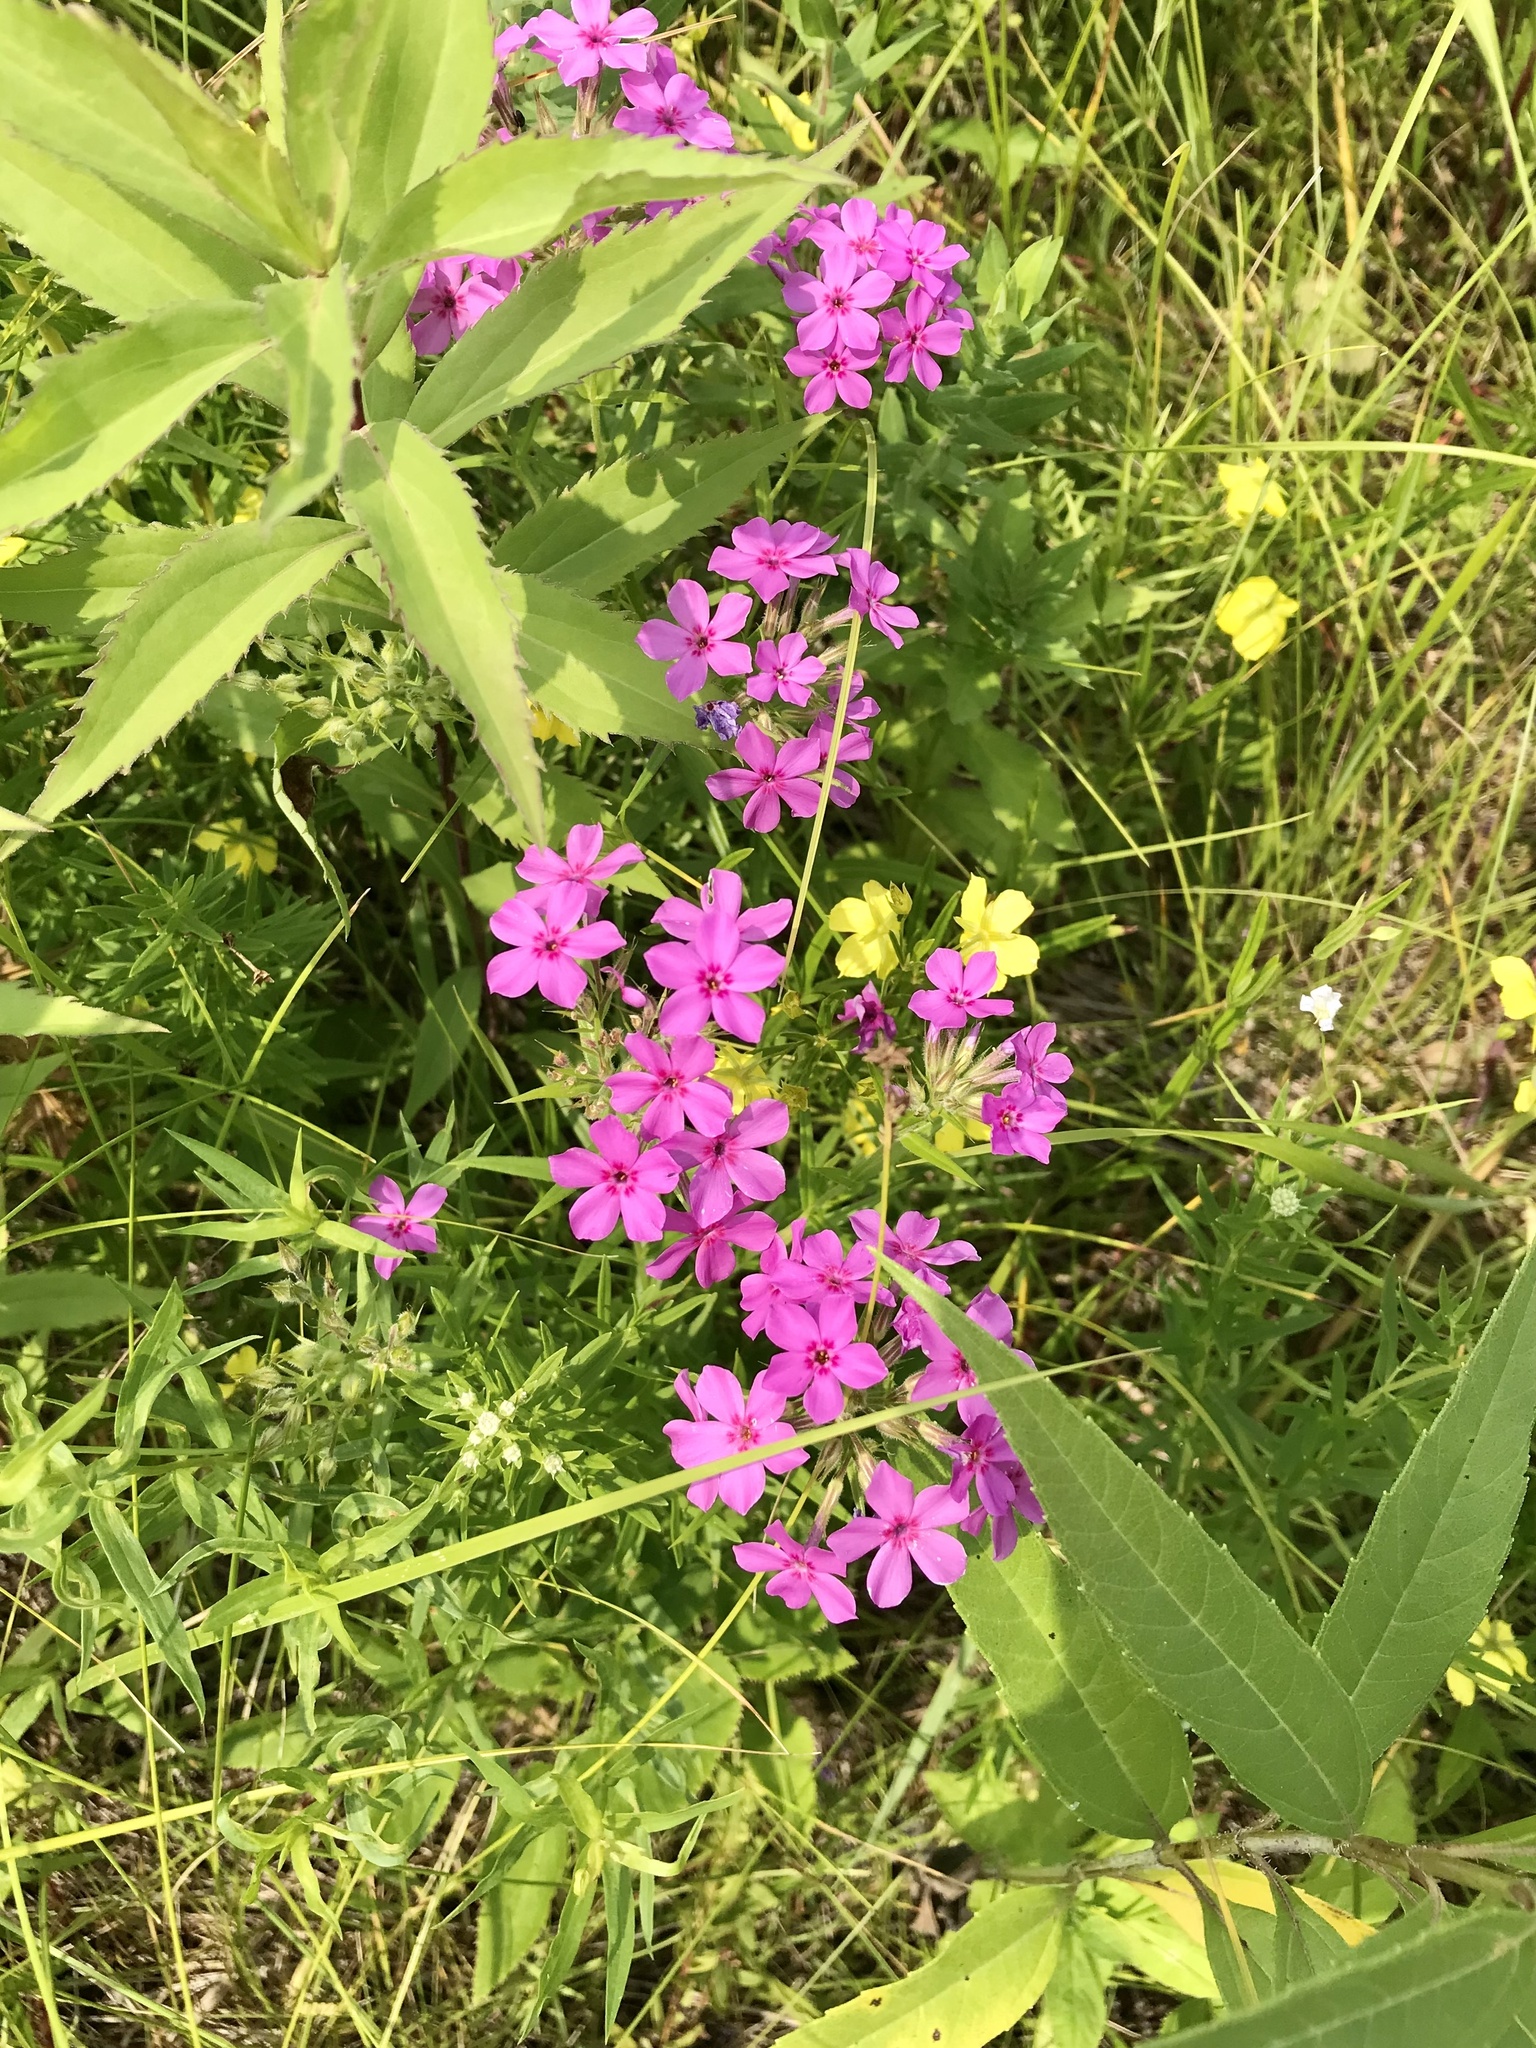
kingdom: Plantae
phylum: Tracheophyta
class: Magnoliopsida
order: Ericales
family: Polemoniaceae
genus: Phlox
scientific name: Phlox pilosa
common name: Prairie phlox
